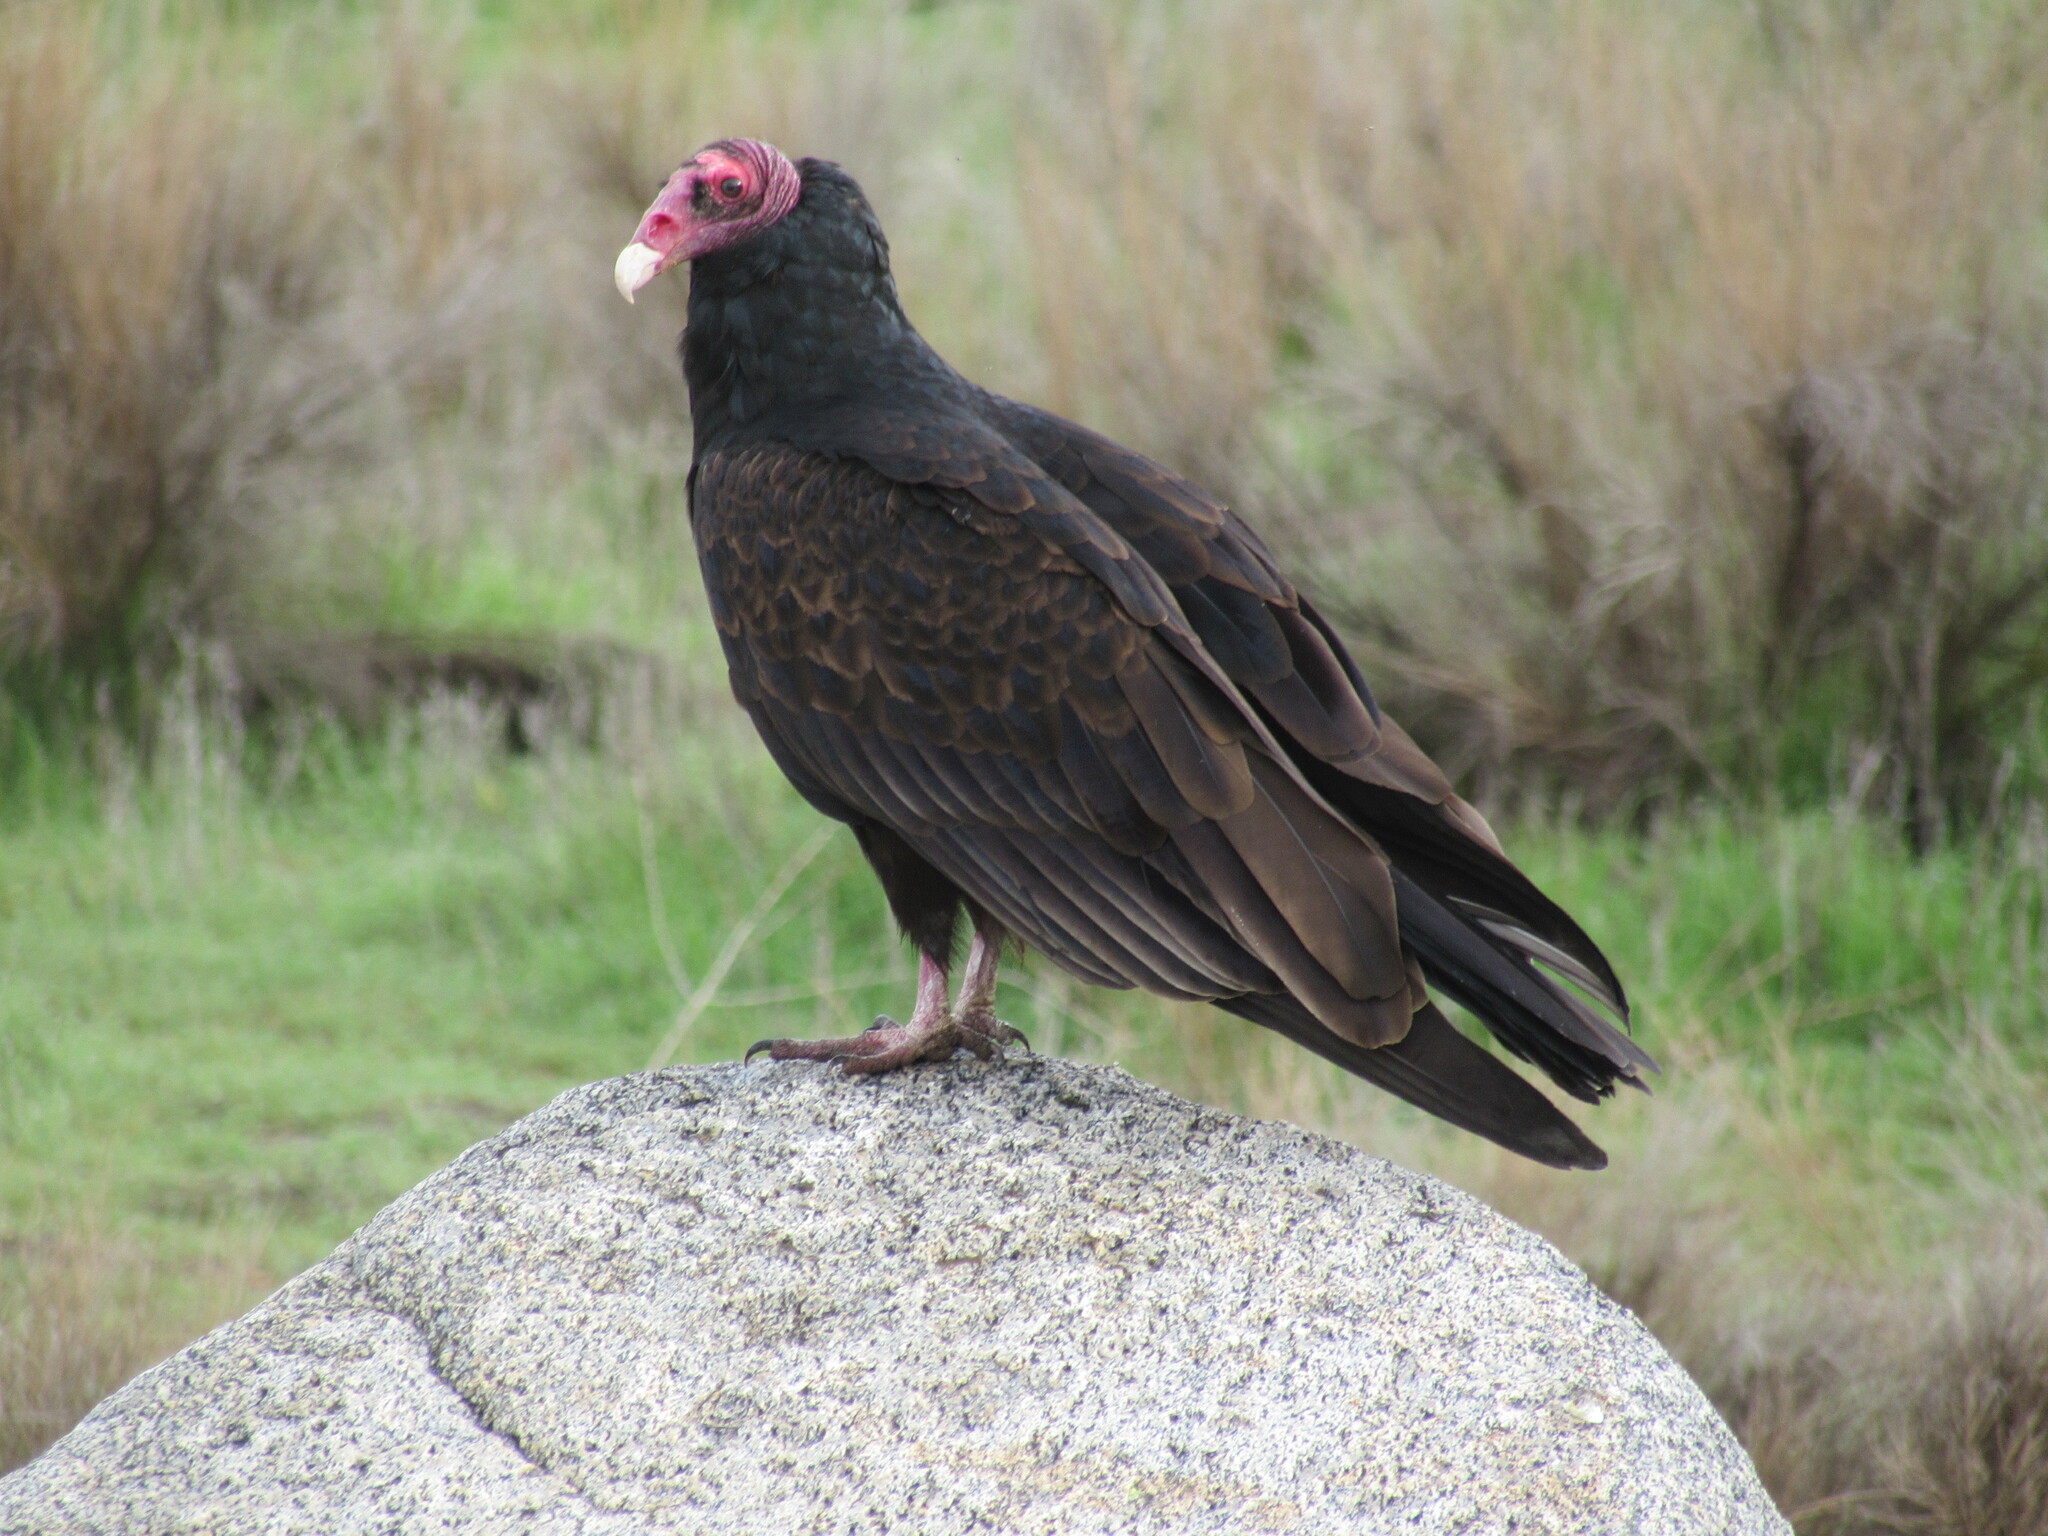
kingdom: Animalia
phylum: Chordata
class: Aves
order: Accipitriformes
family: Cathartidae
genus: Cathartes
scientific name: Cathartes aura
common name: Turkey vulture
